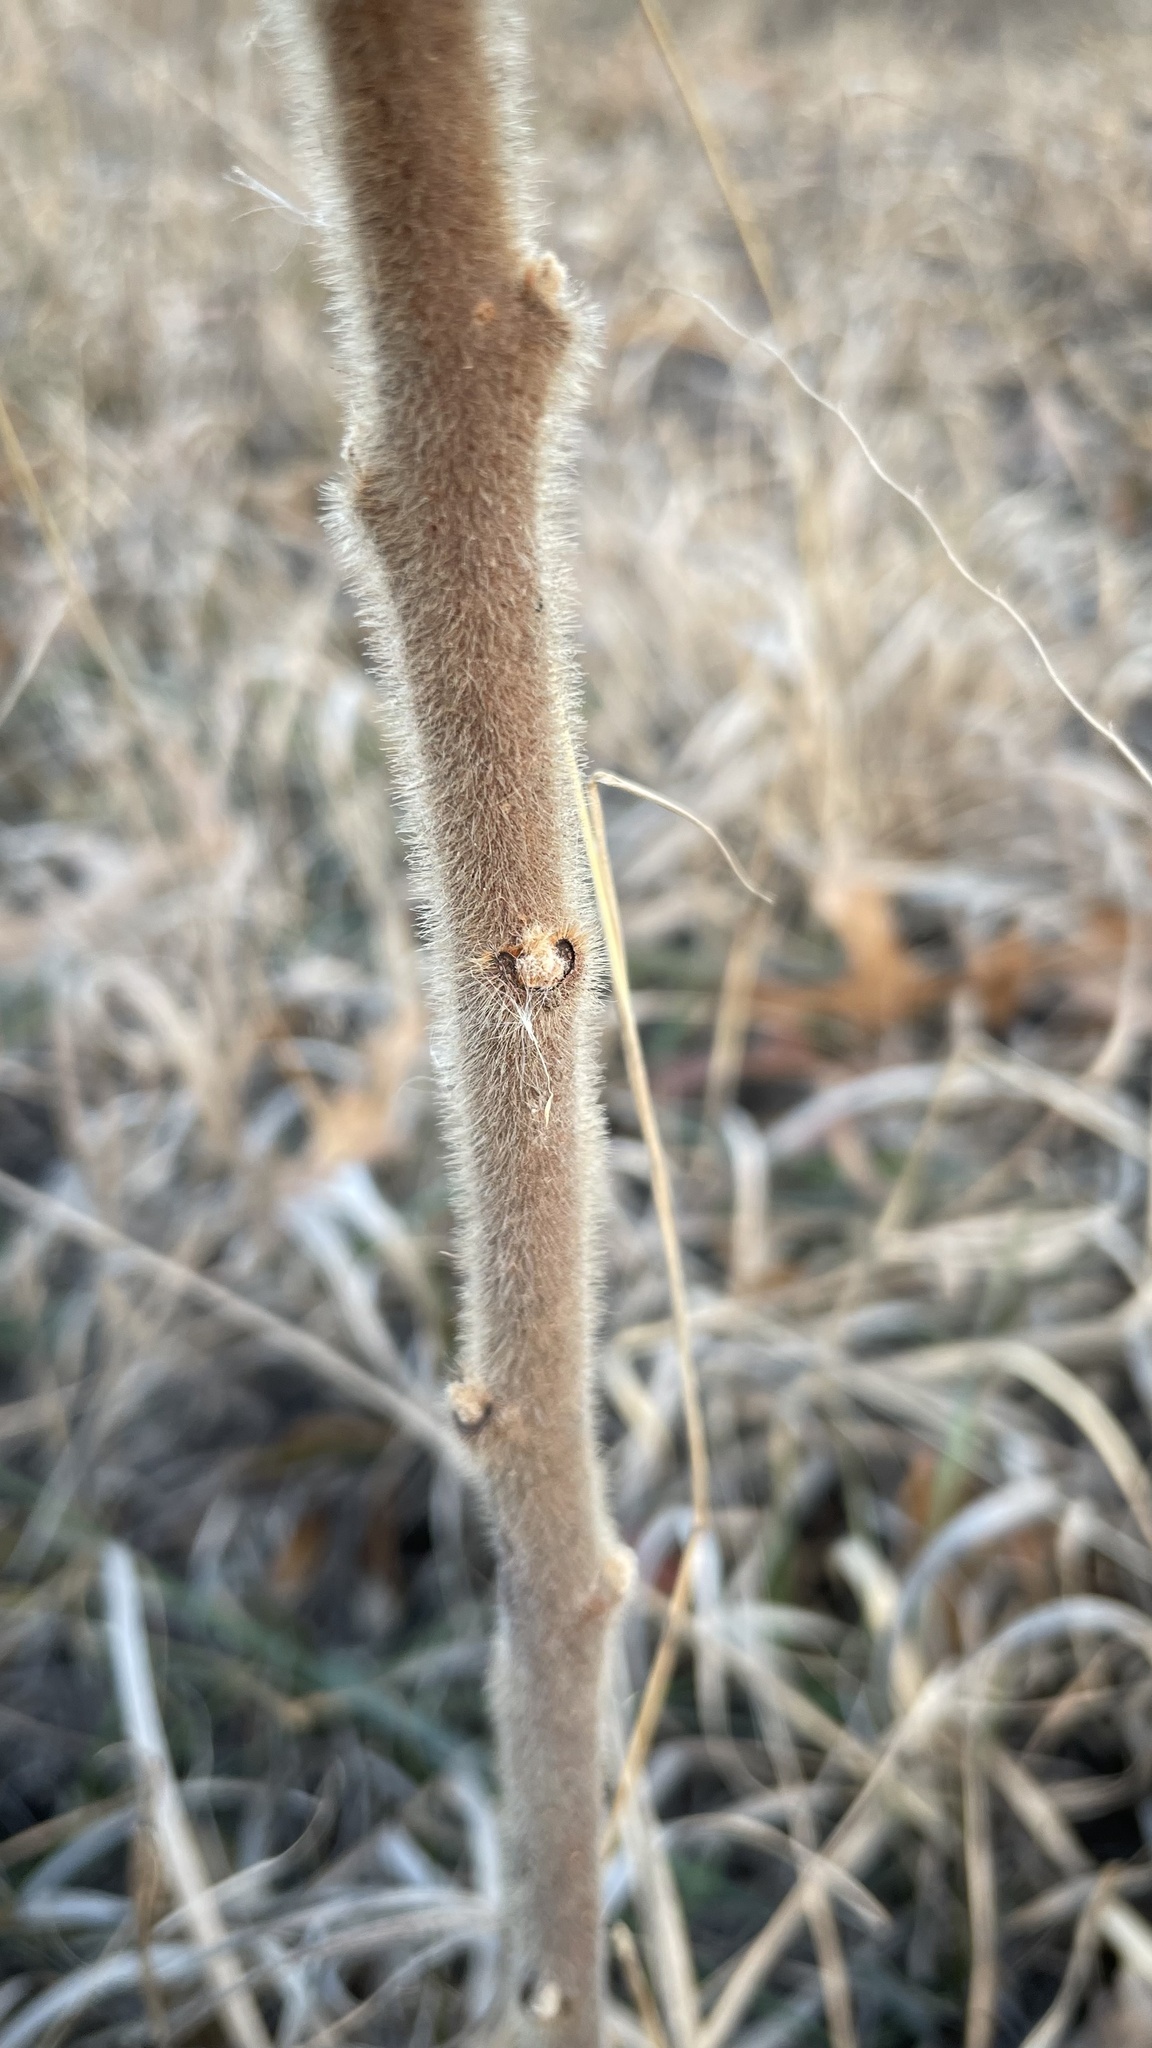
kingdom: Plantae
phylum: Tracheophyta
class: Magnoliopsida
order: Sapindales
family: Anacardiaceae
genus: Rhus
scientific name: Rhus typhina
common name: Staghorn sumac
